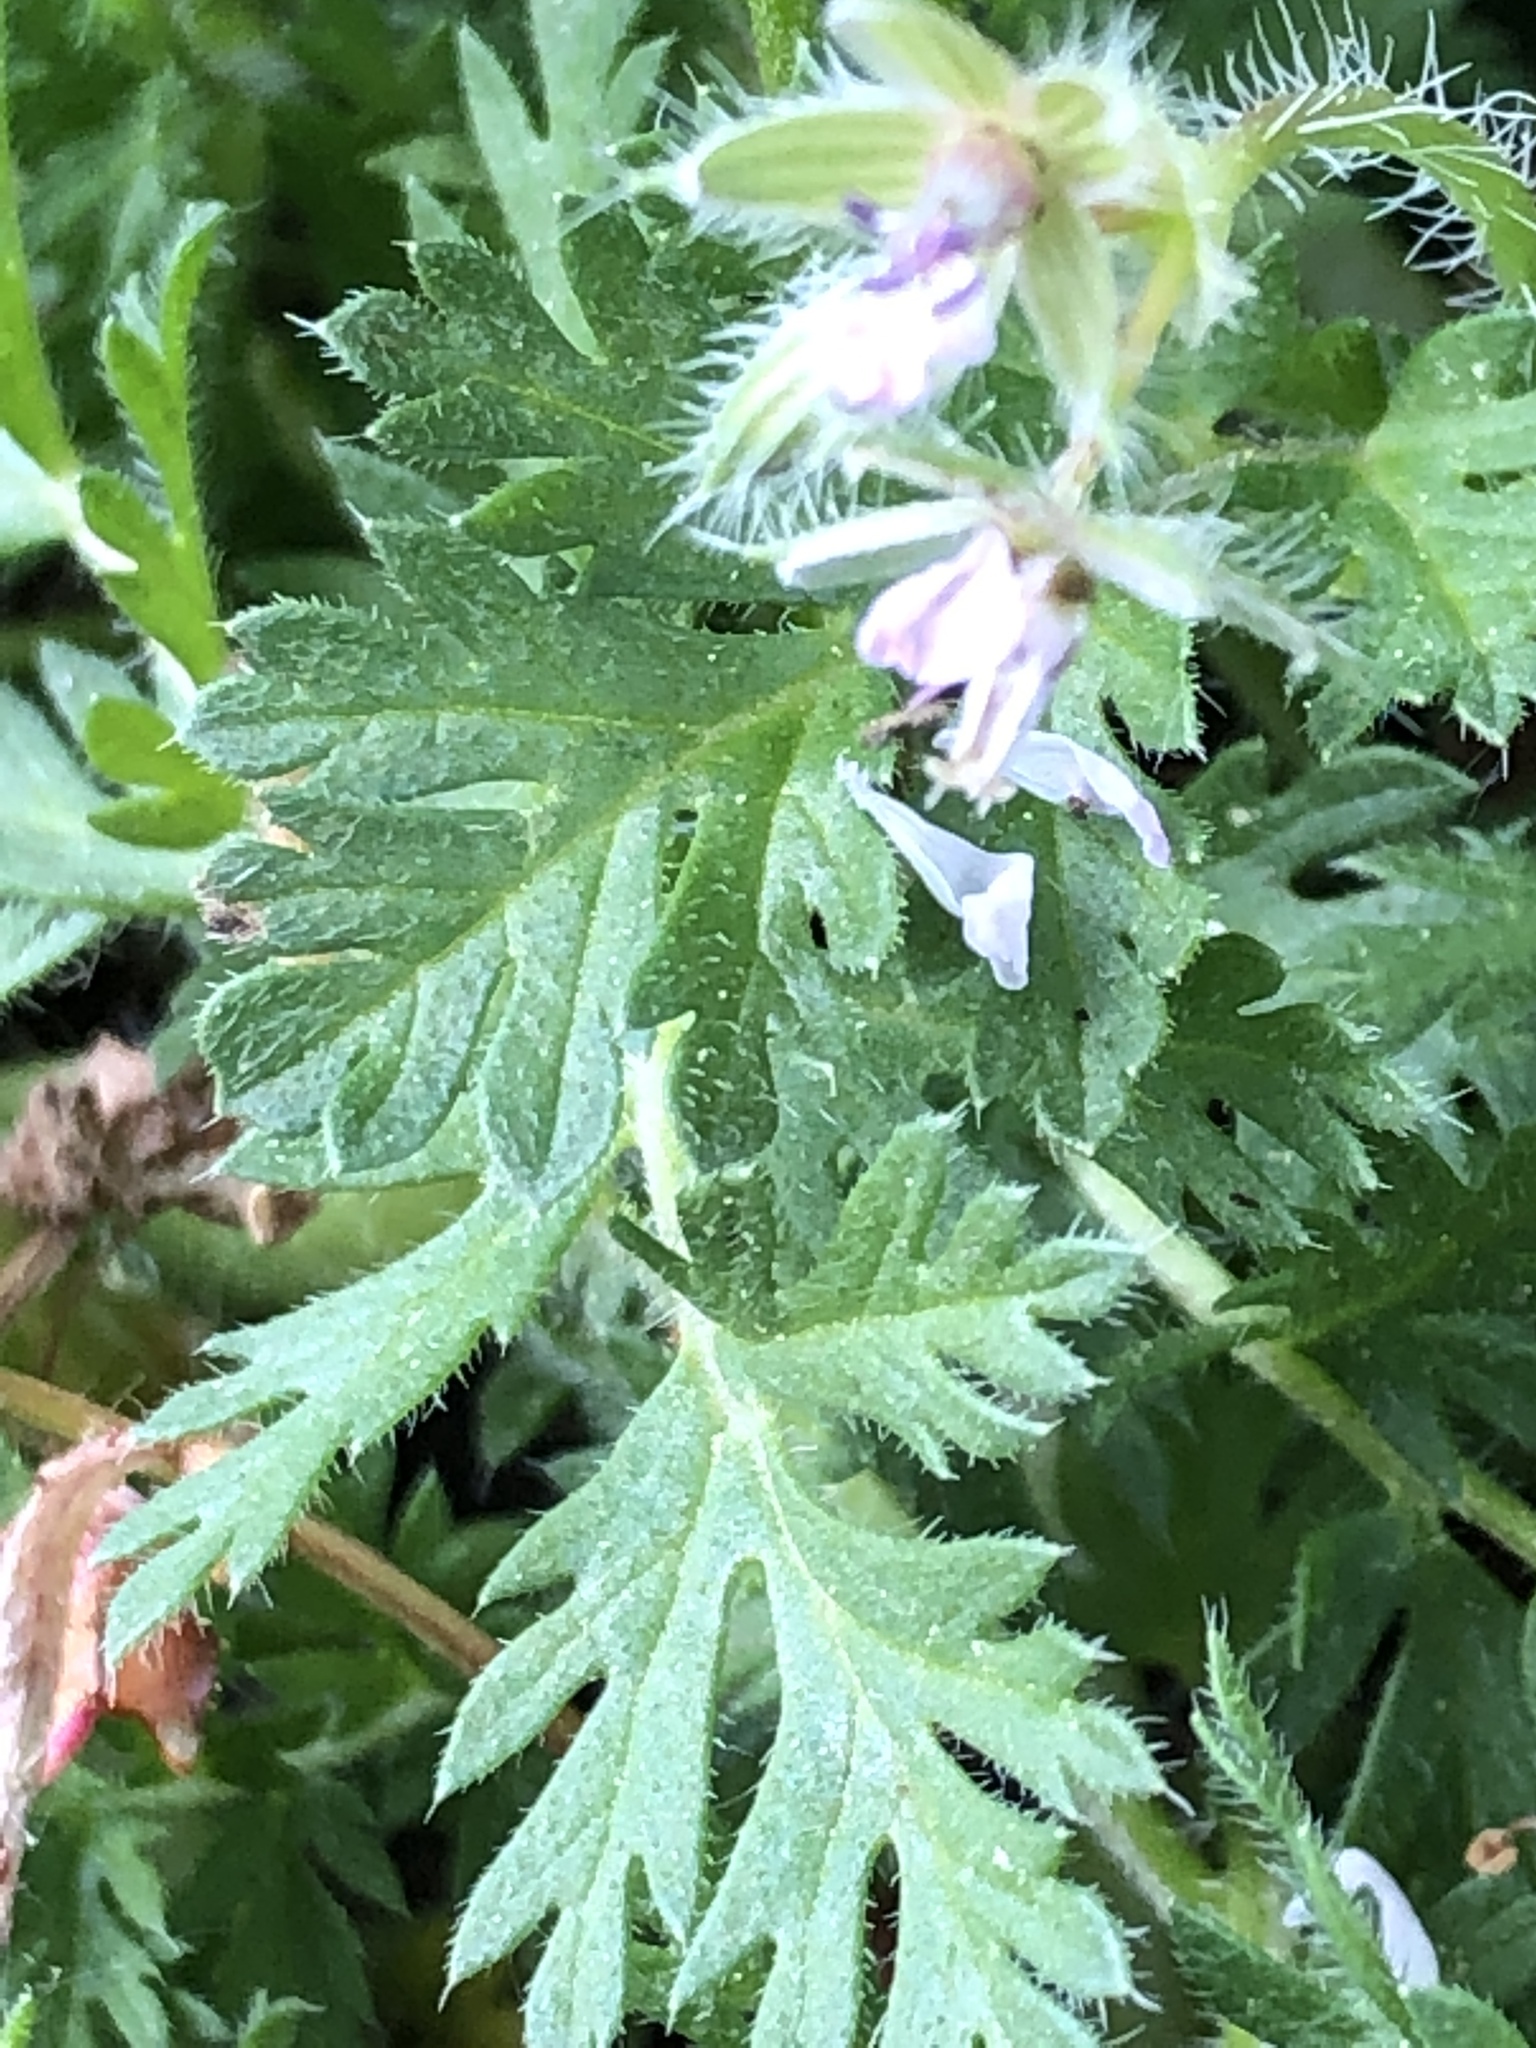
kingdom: Plantae
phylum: Tracheophyta
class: Magnoliopsida
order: Geraniales
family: Geraniaceae
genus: Erodium
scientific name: Erodium cicutarium
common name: Common stork's-bill
